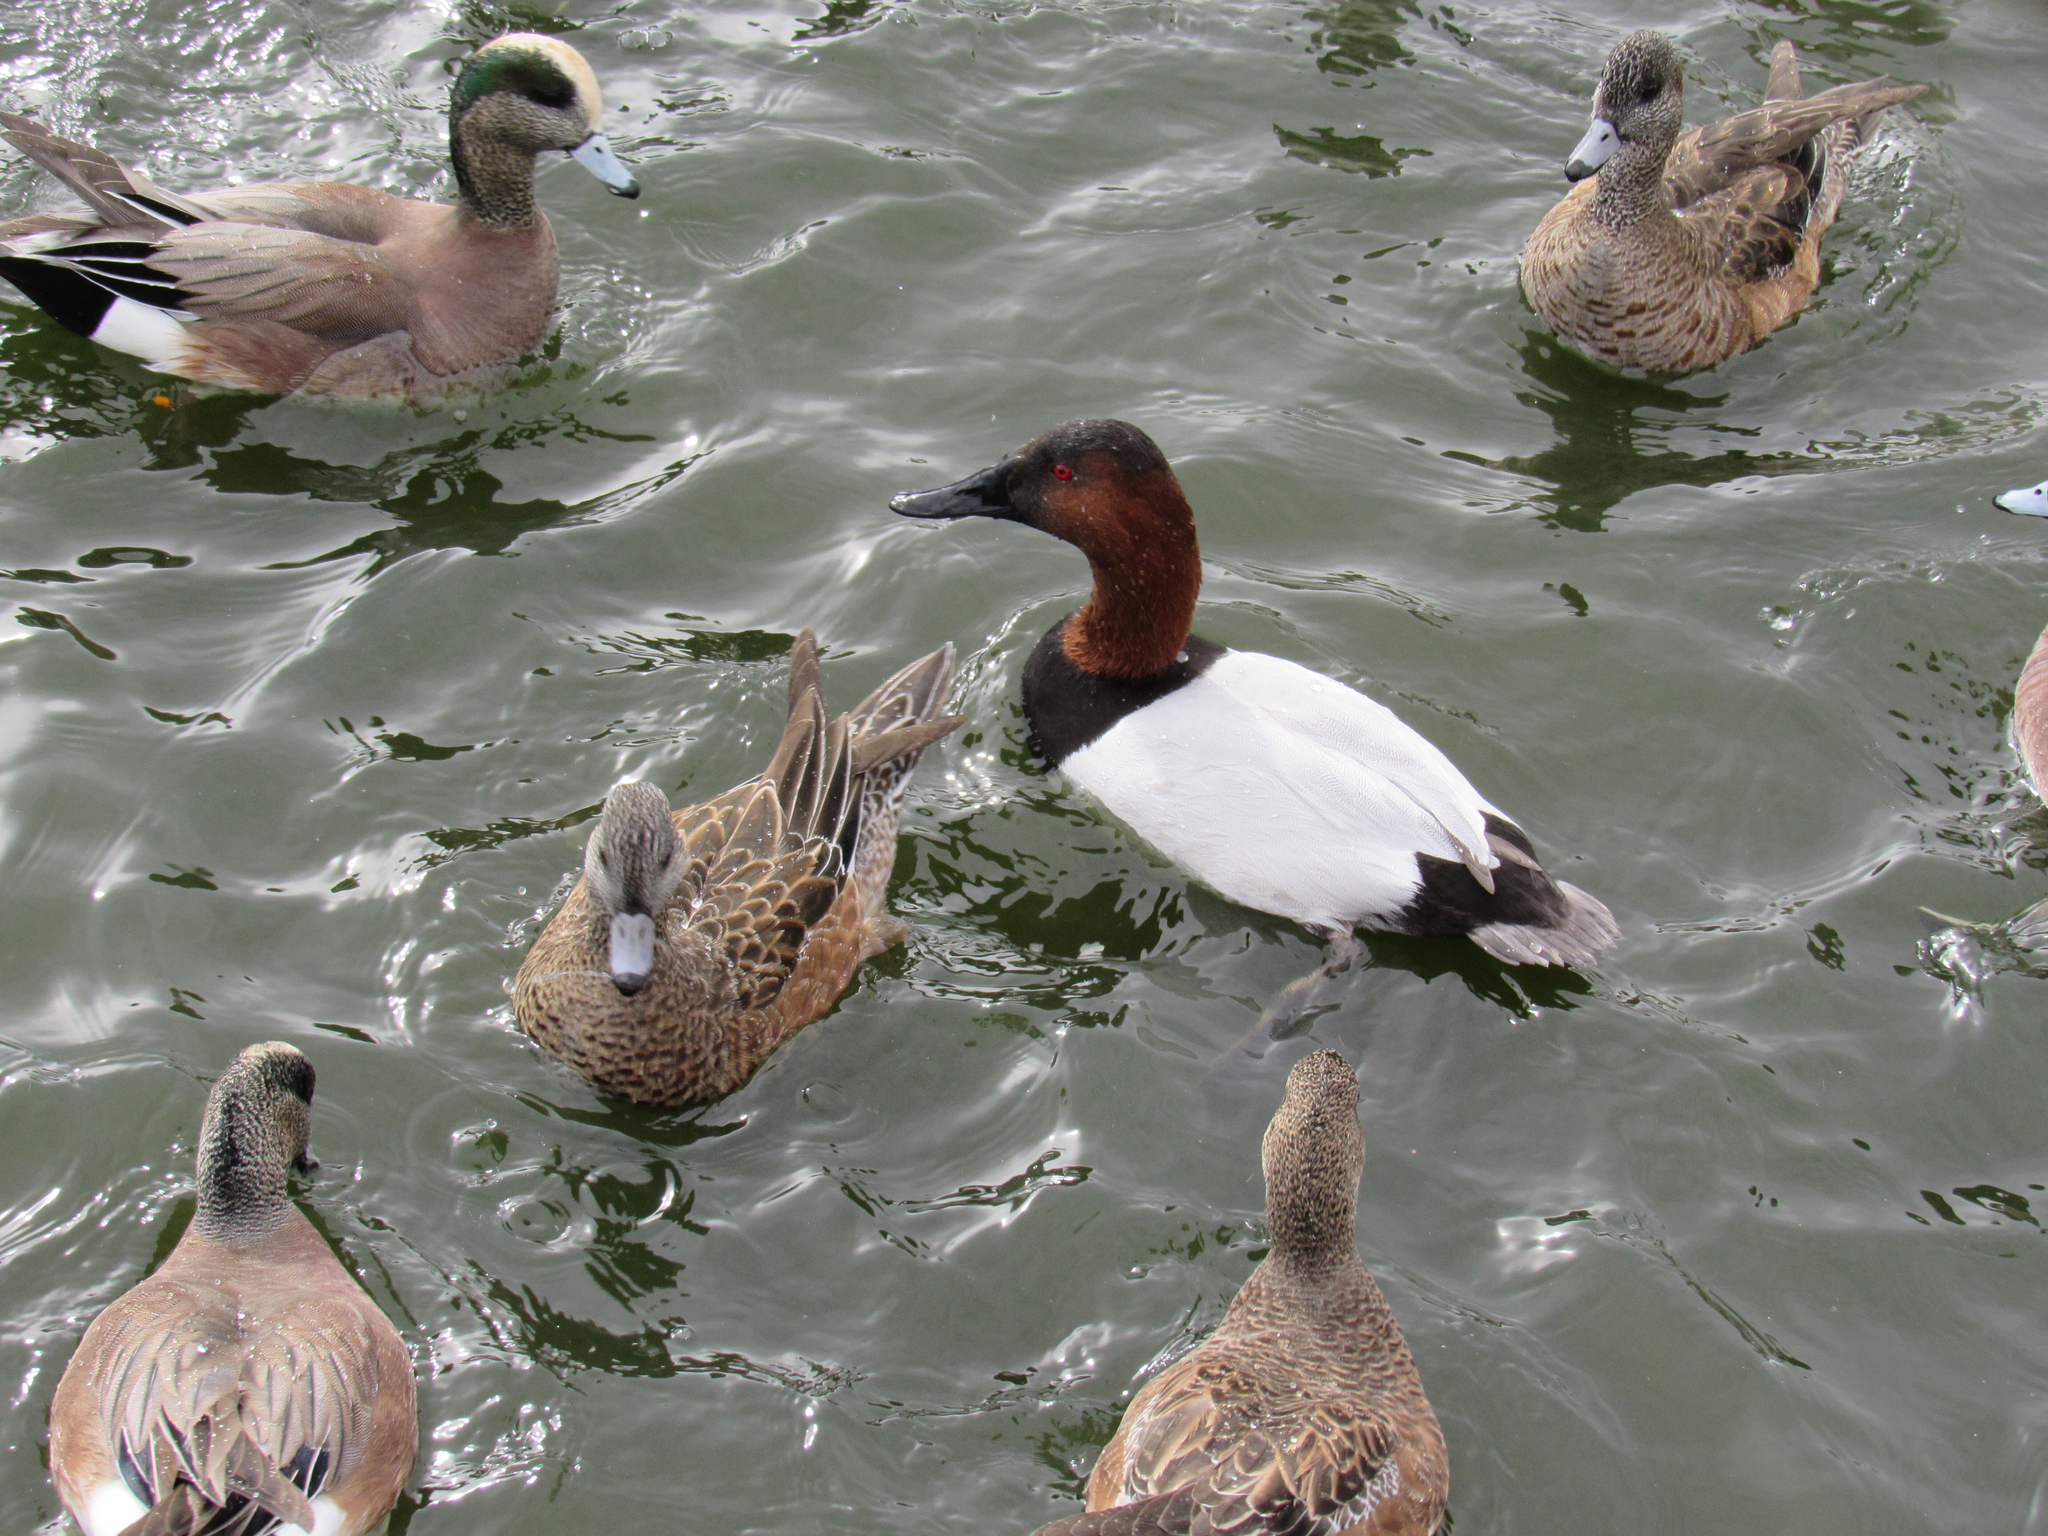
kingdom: Animalia
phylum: Chordata
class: Aves
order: Anseriformes
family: Anatidae
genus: Aythya
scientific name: Aythya valisineria
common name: Canvasback
